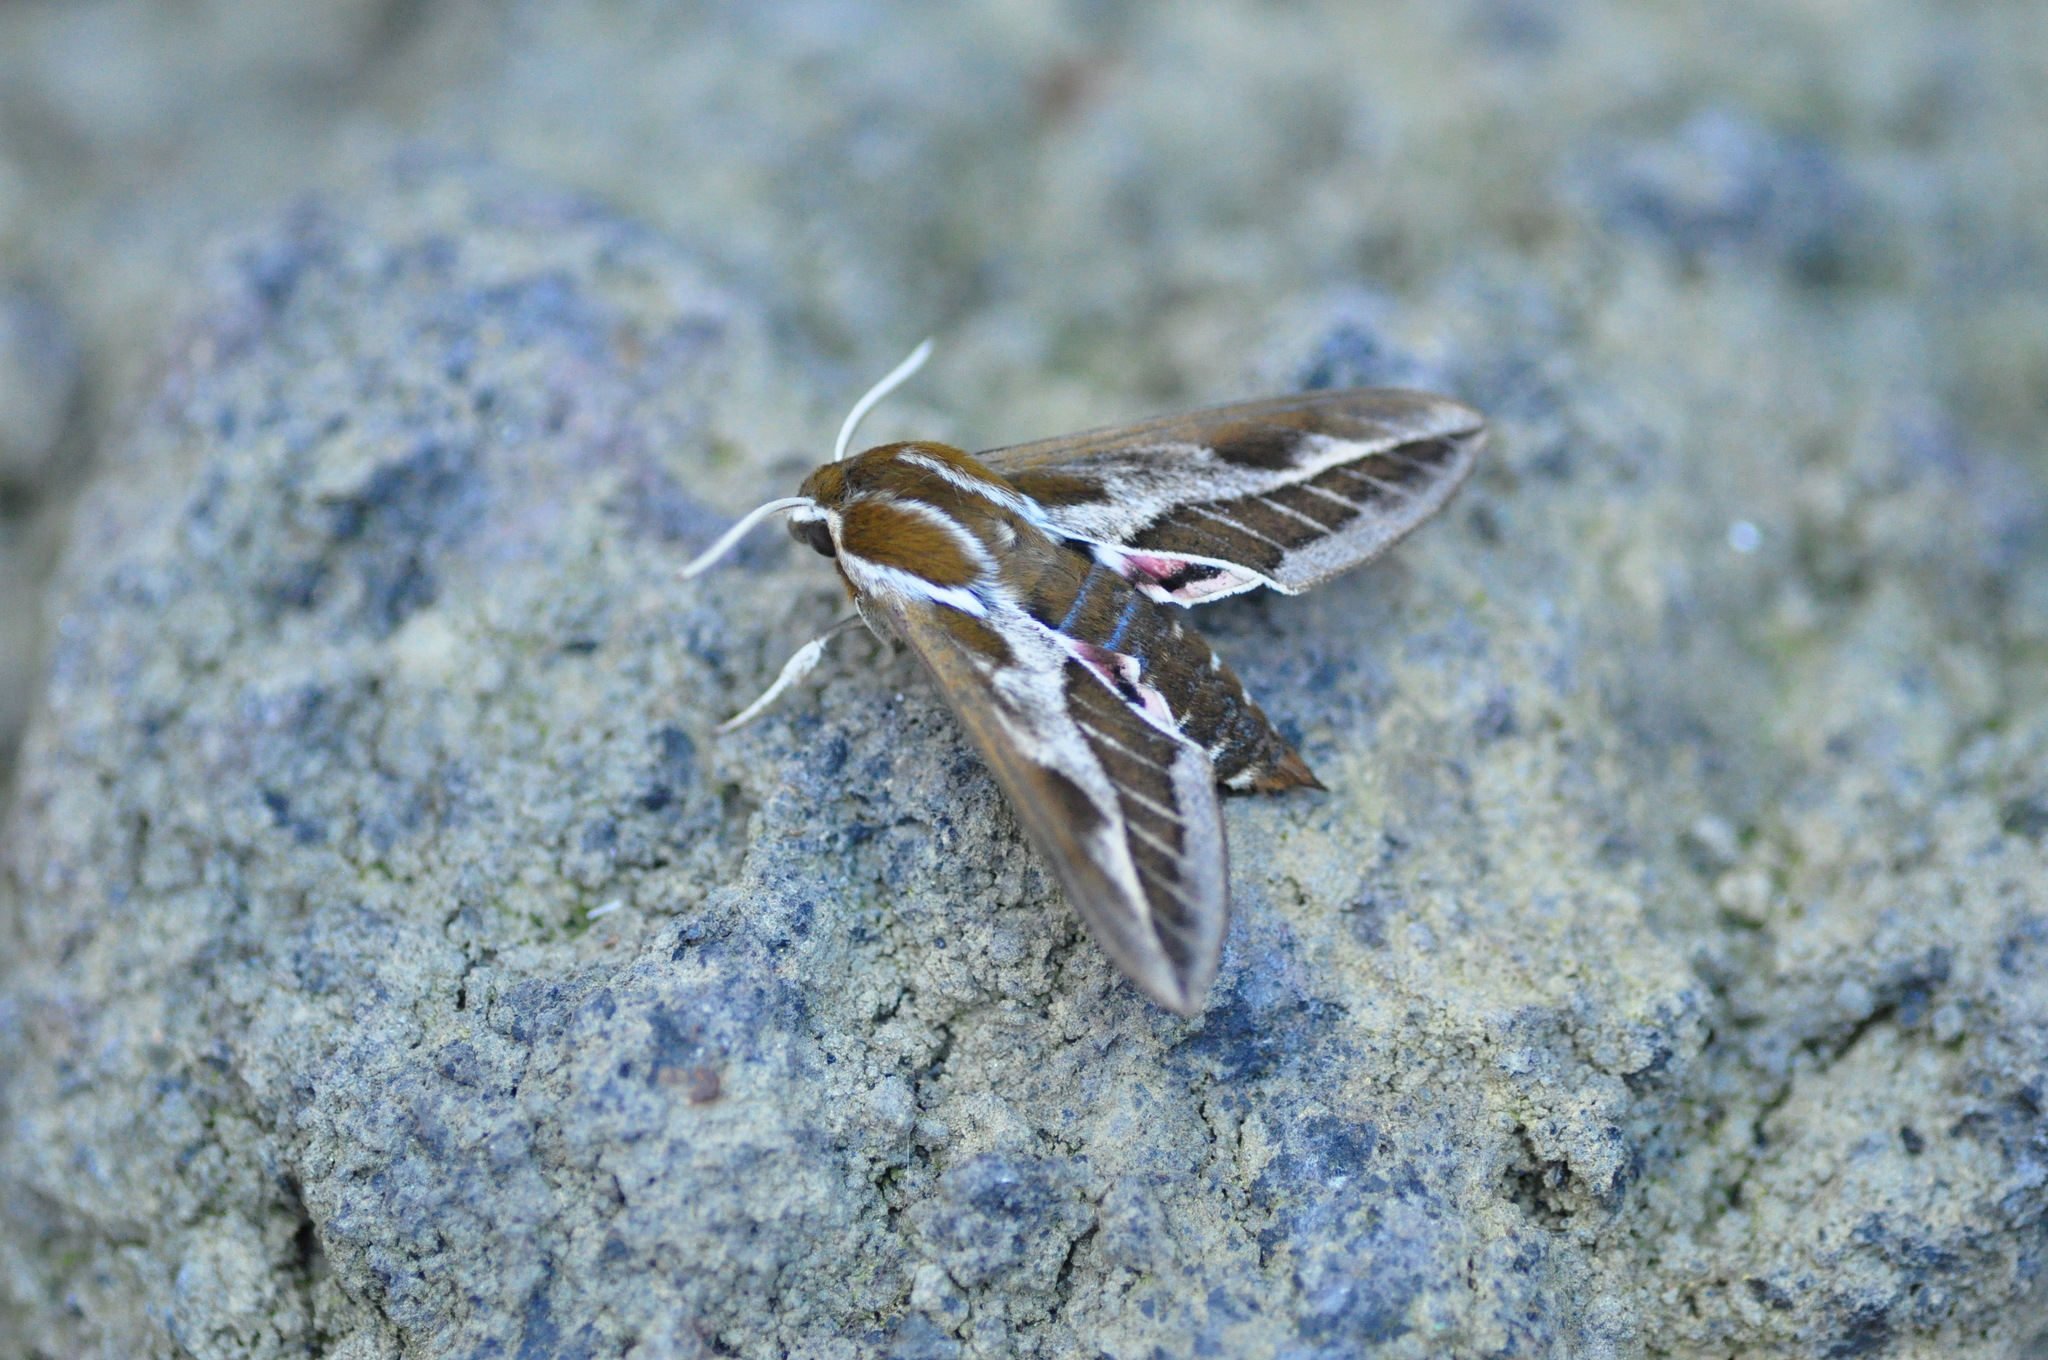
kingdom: Animalia
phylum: Arthropoda
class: Insecta
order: Lepidoptera
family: Sphingidae
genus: Hyles
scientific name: Hyles tithymali
